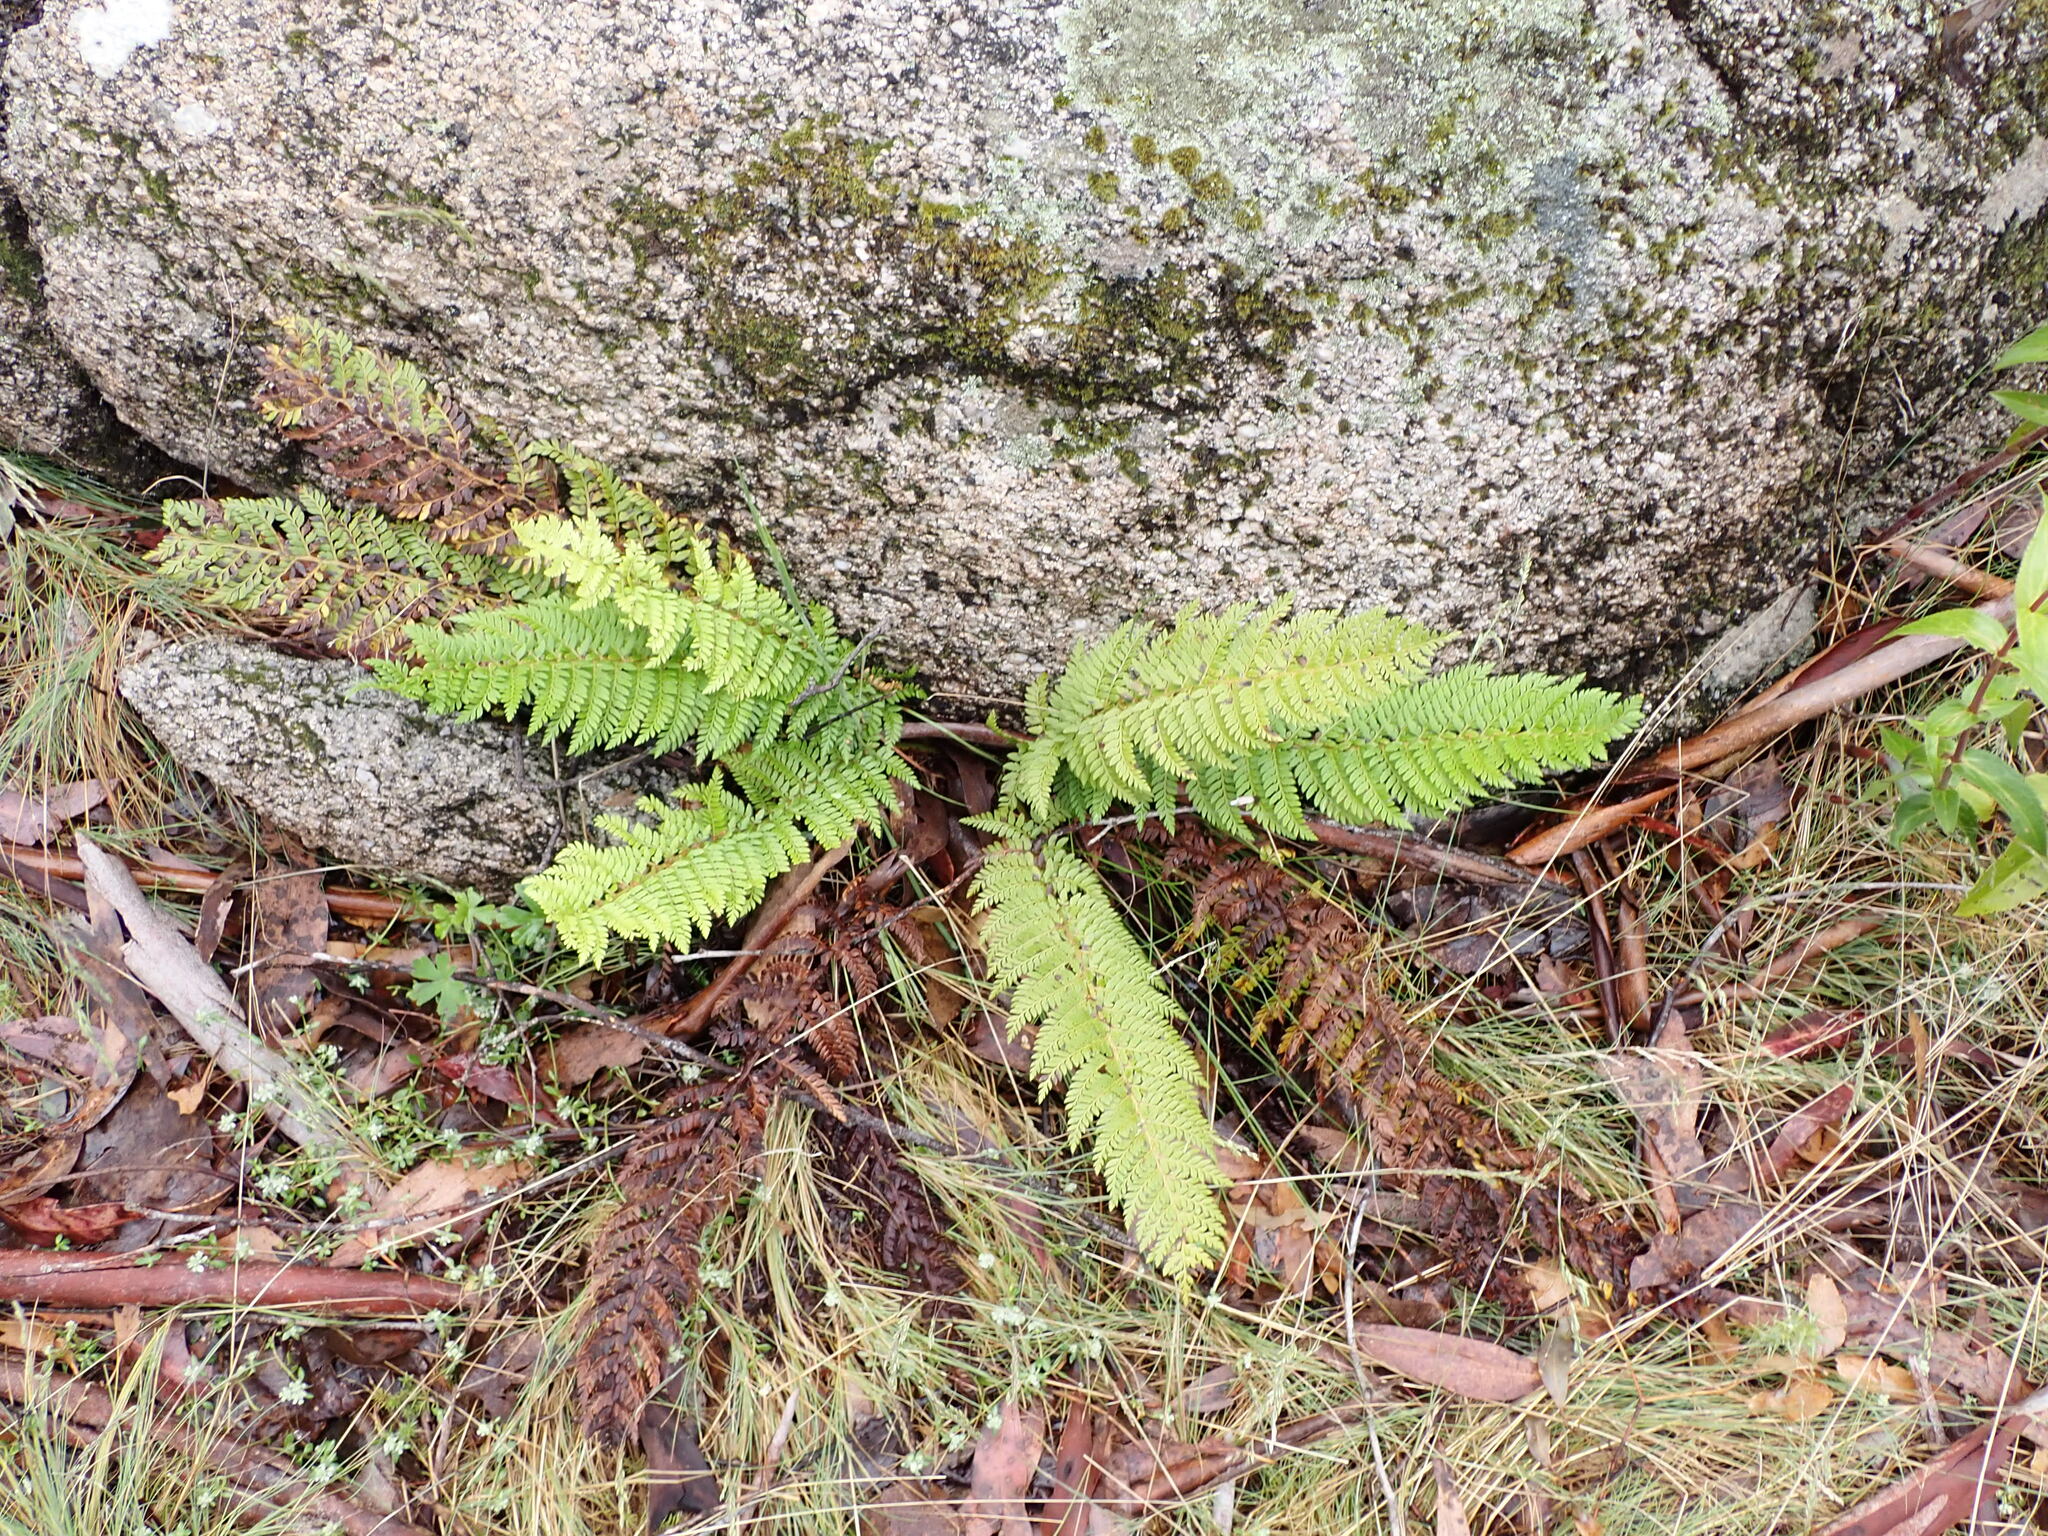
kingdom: Plantae
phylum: Tracheophyta
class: Polypodiopsida
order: Polypodiales
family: Dryopteridaceae
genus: Polystichum
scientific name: Polystichum proliferum
